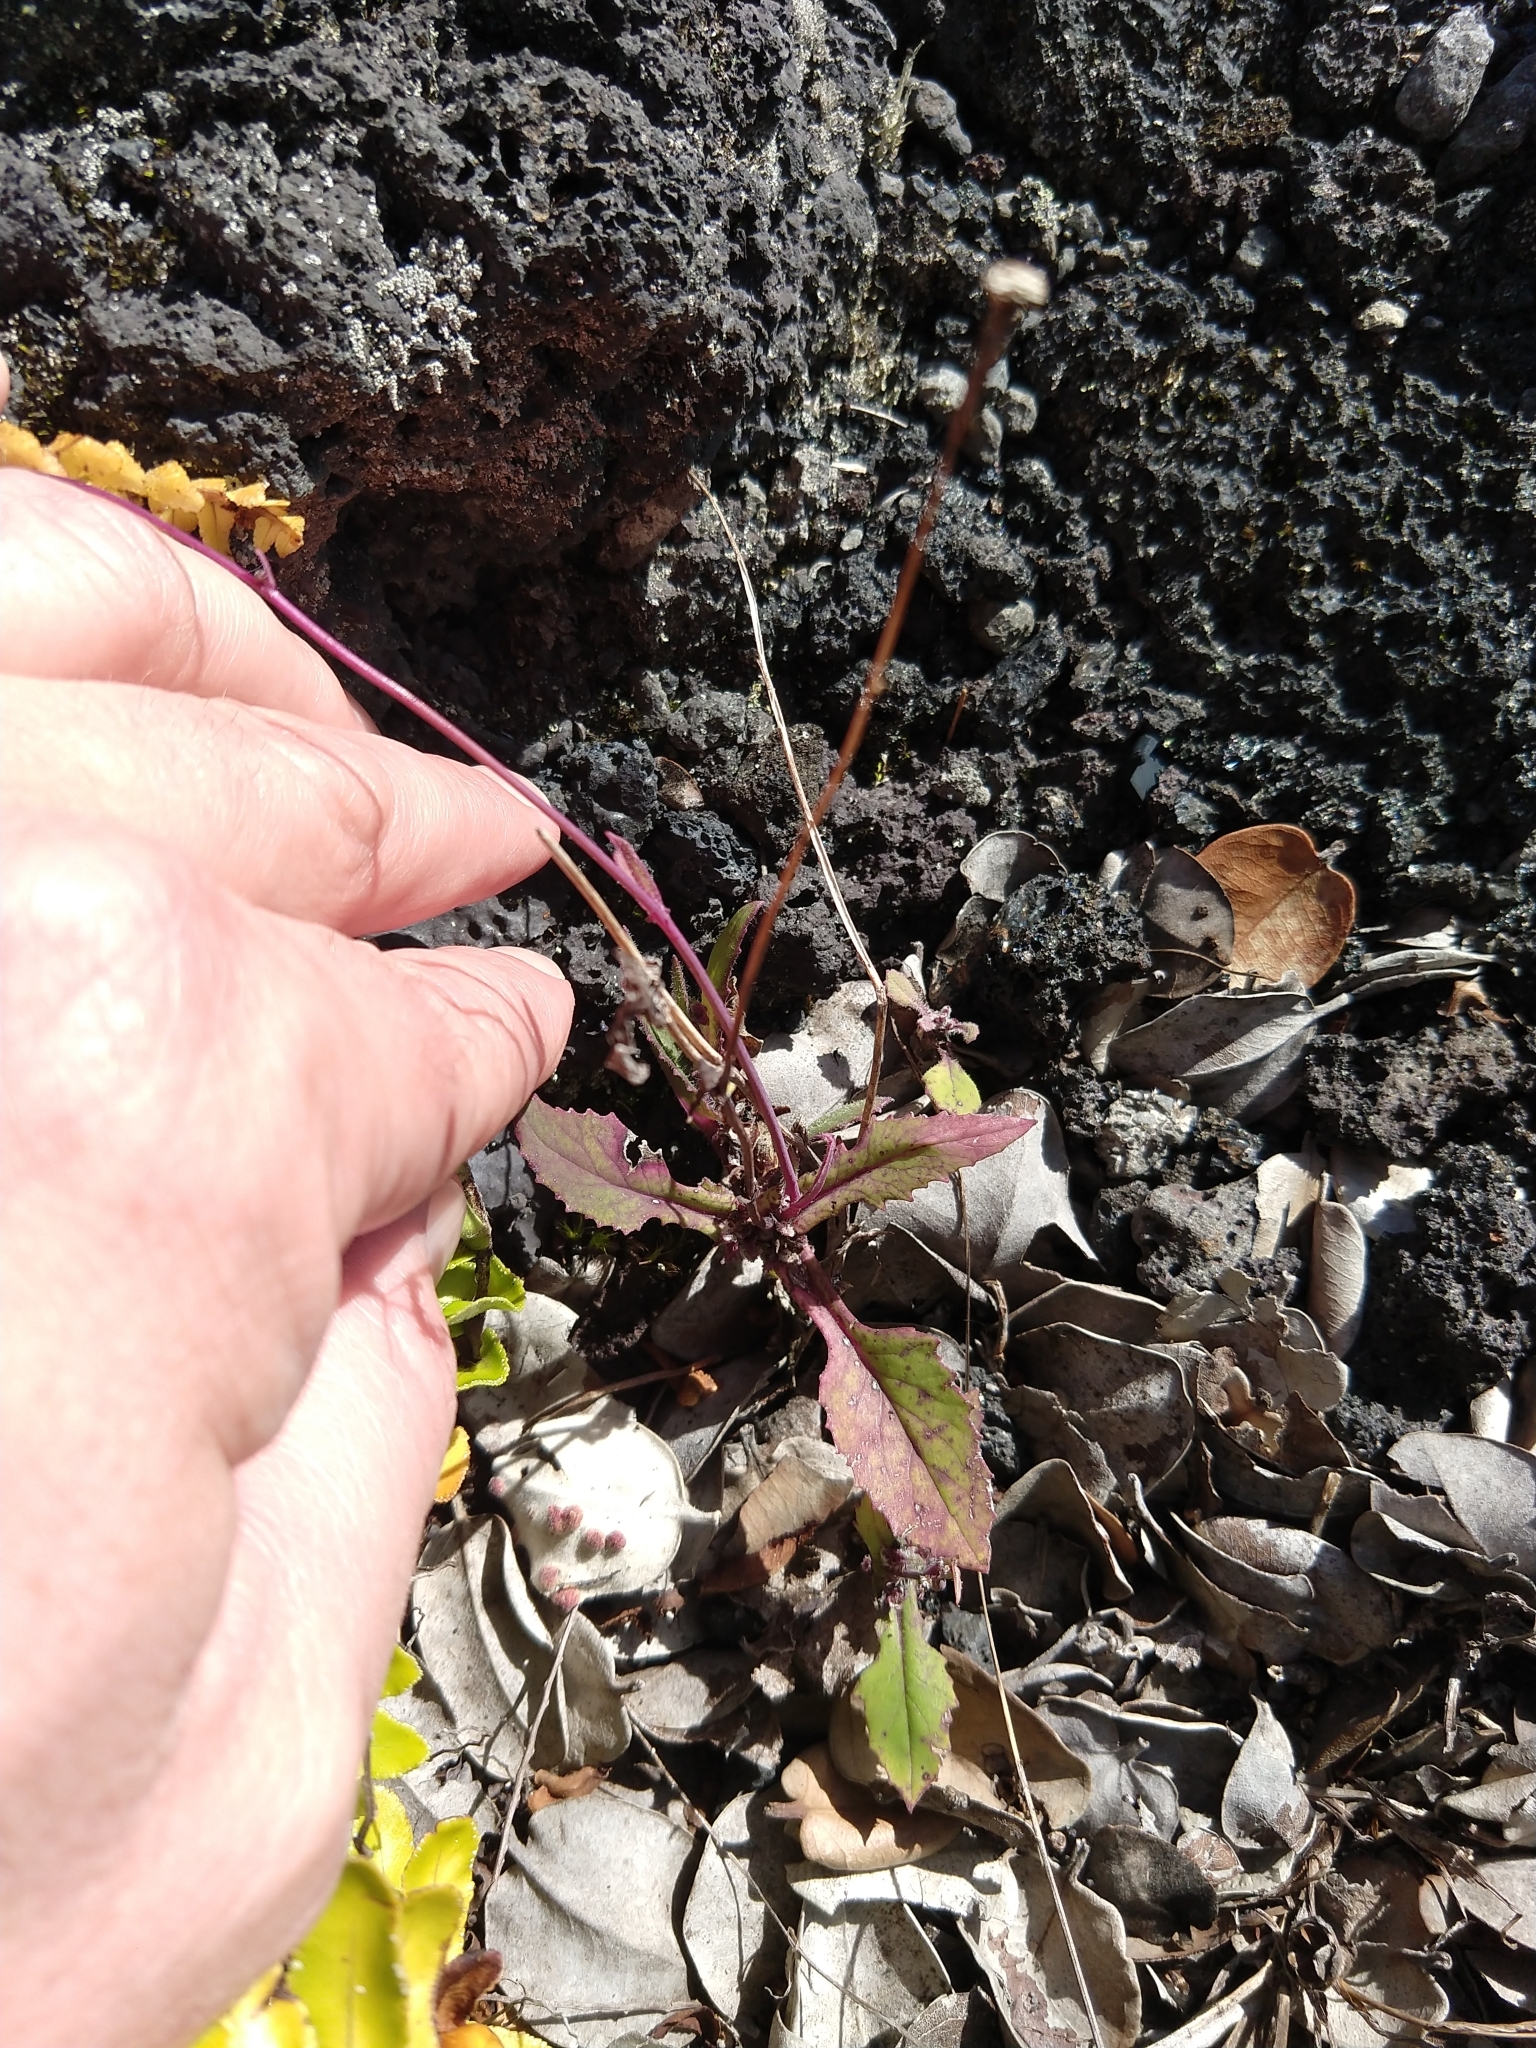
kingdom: Plantae
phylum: Tracheophyta
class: Magnoliopsida
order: Asterales
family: Asteraceae
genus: Emilia
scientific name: Emilia sonchifolia
